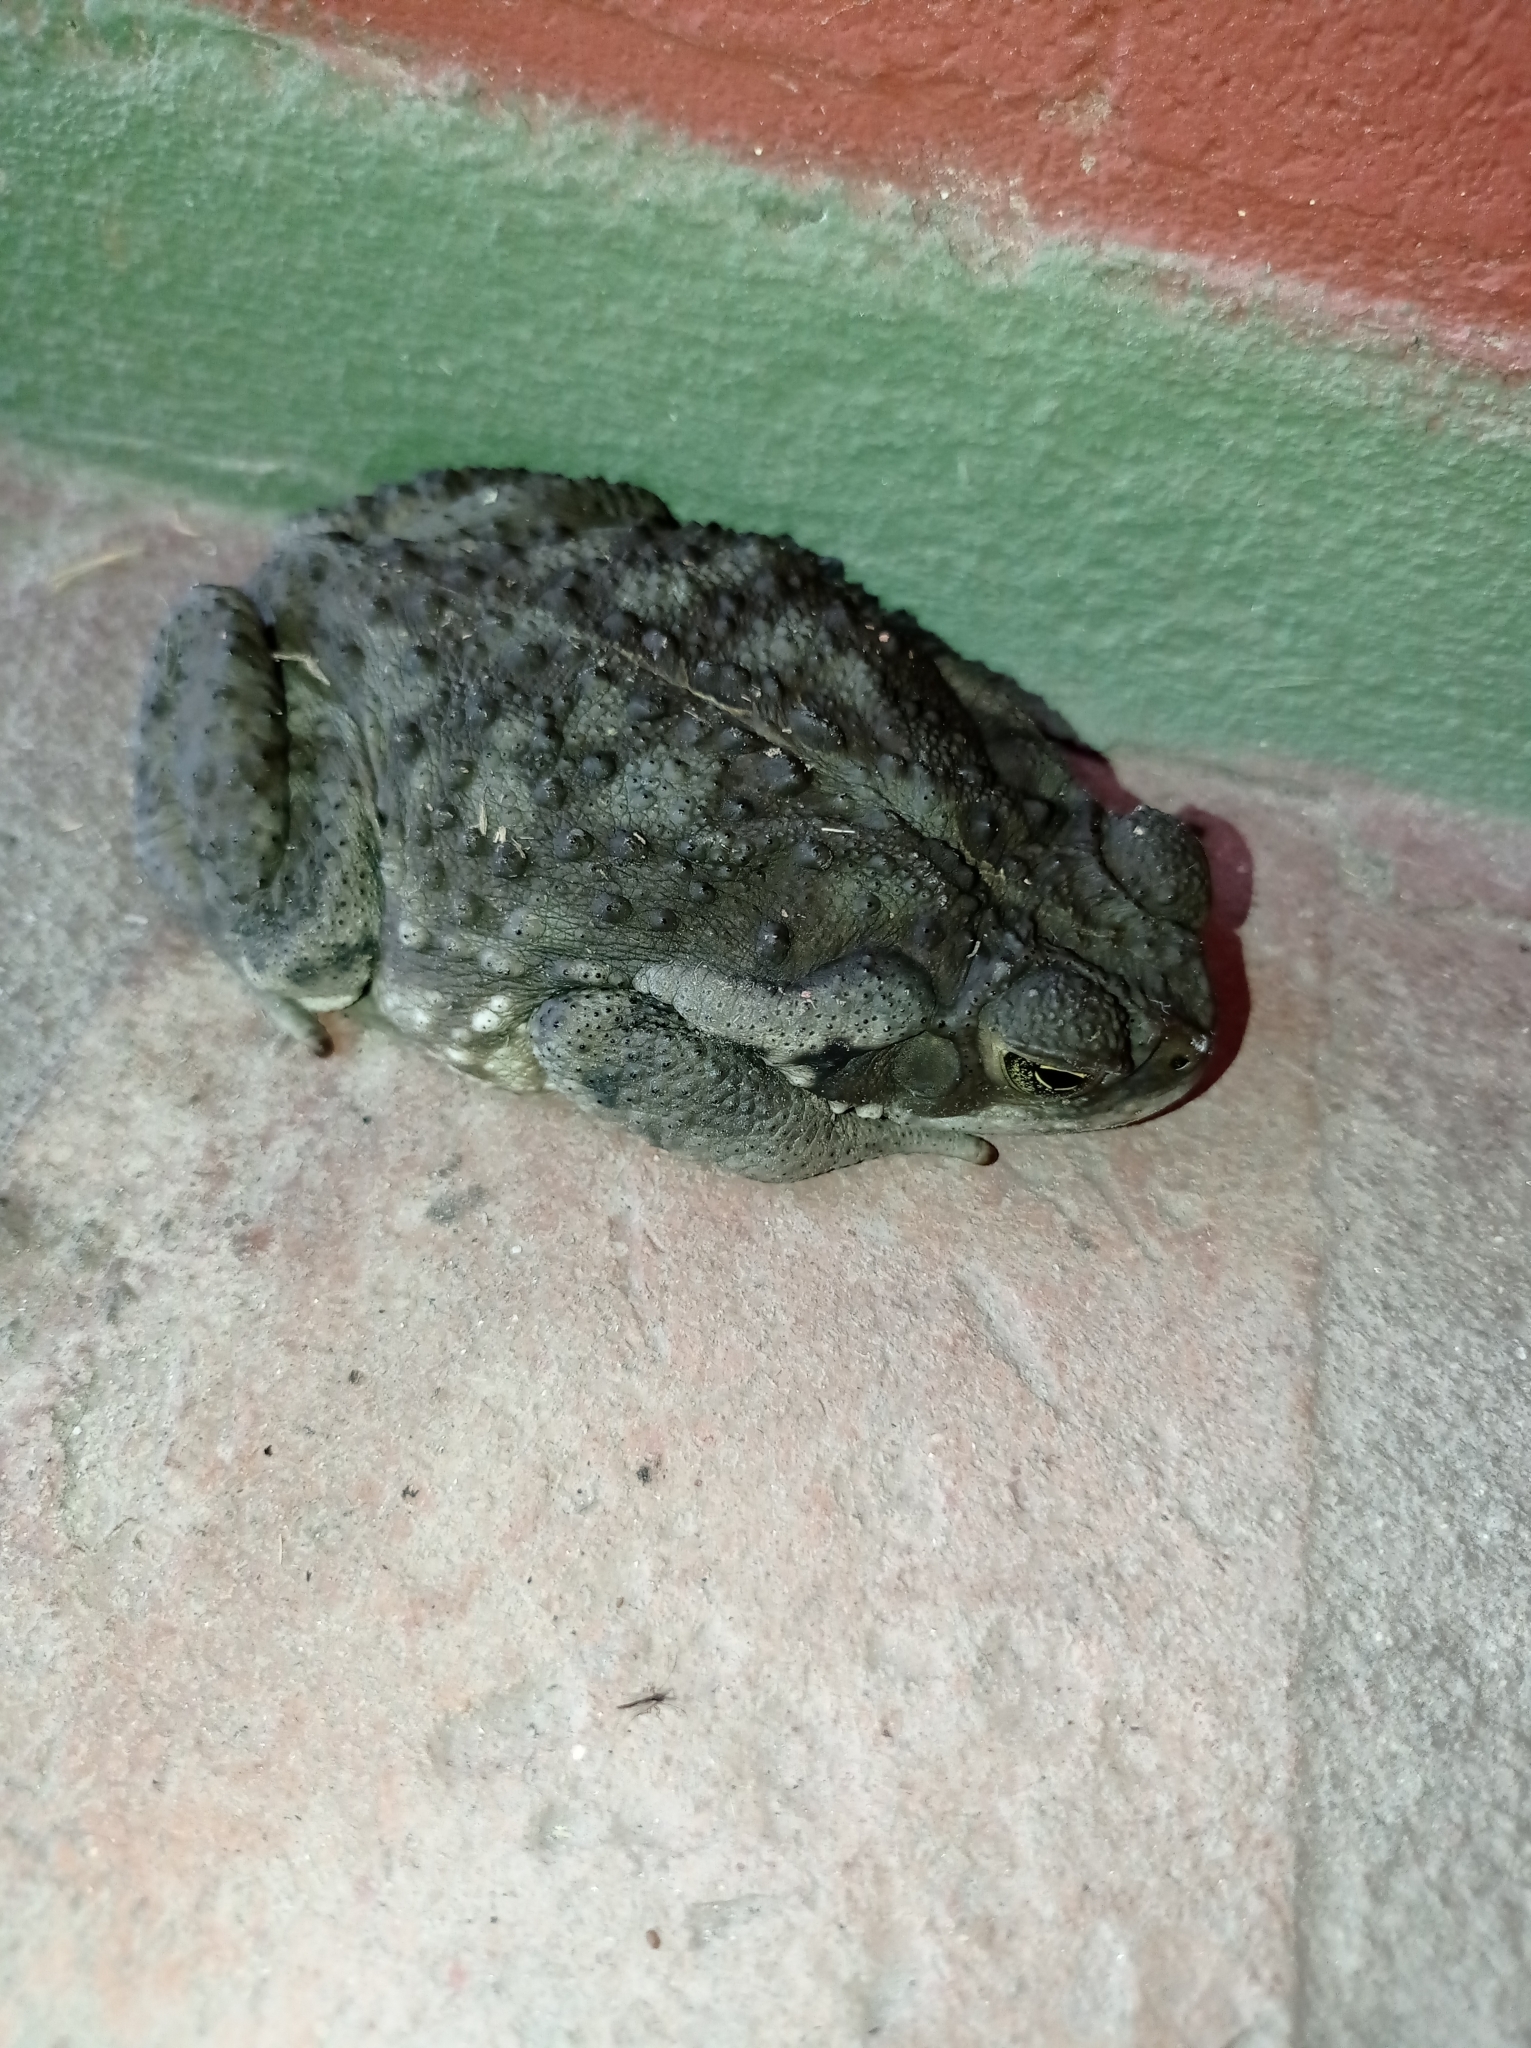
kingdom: Animalia
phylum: Chordata
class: Amphibia
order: Anura
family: Bufonidae
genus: Rhinella
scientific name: Rhinella arenarum
